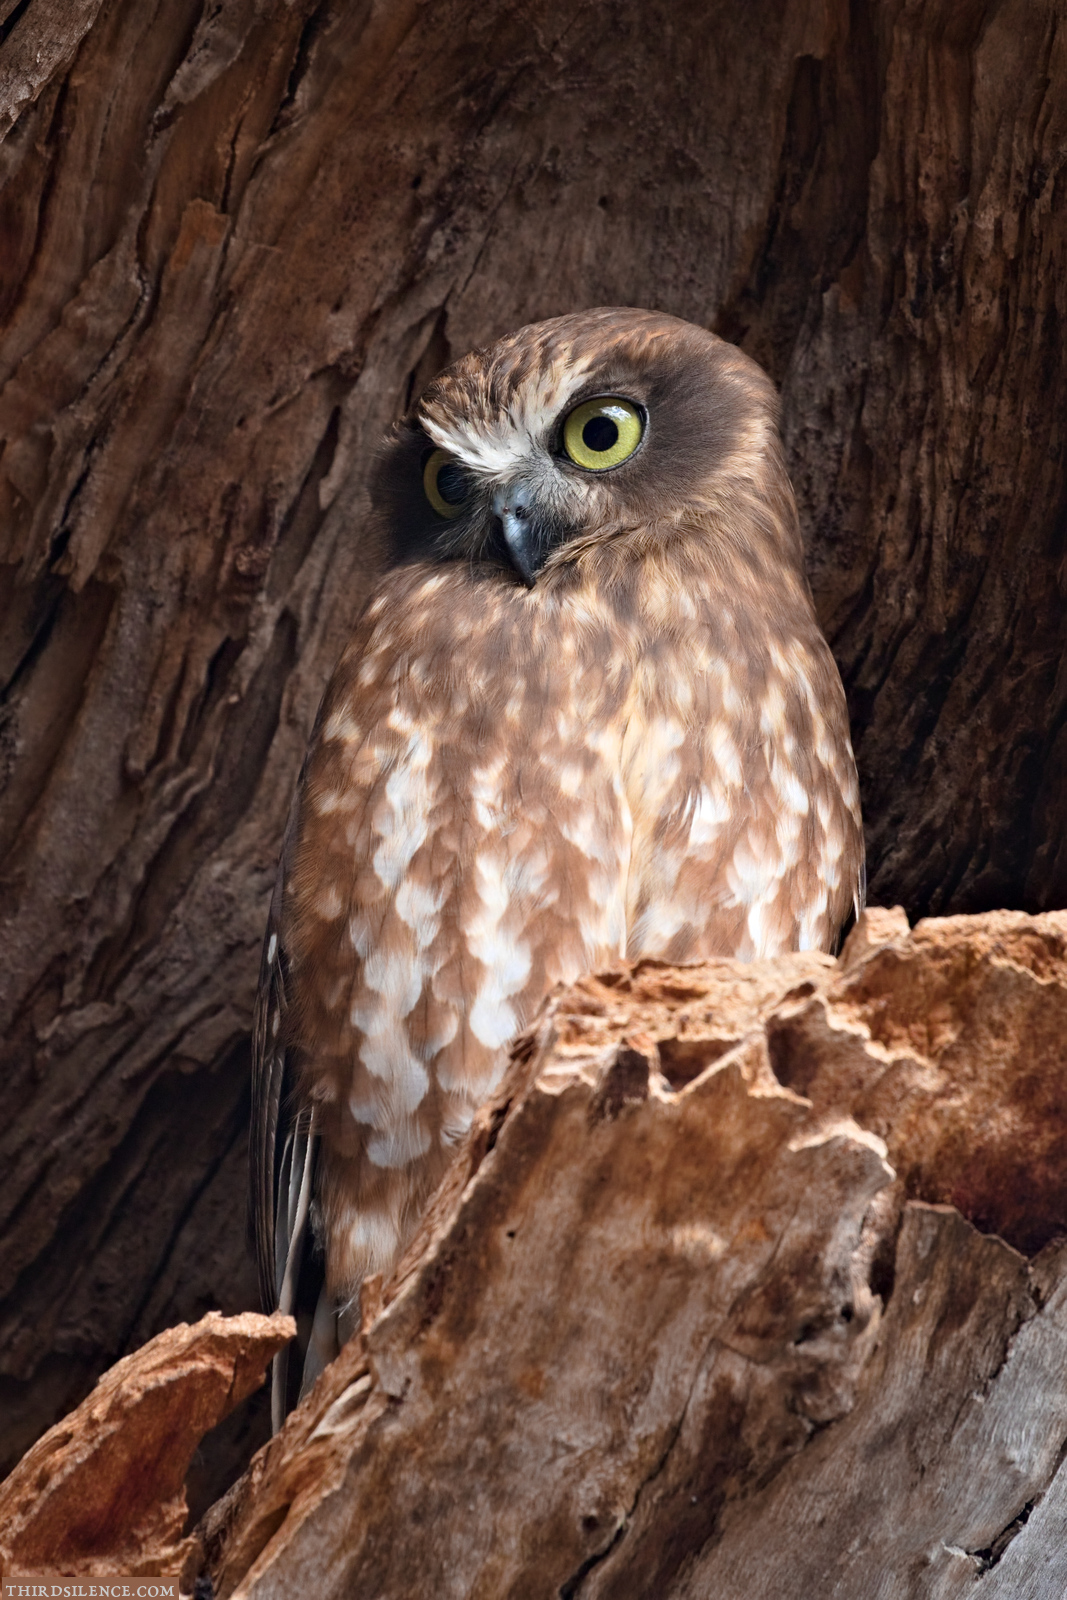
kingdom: Animalia
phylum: Chordata
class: Aves
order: Strigiformes
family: Strigidae
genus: Ninox
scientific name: Ninox boobook
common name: Southern boobook
